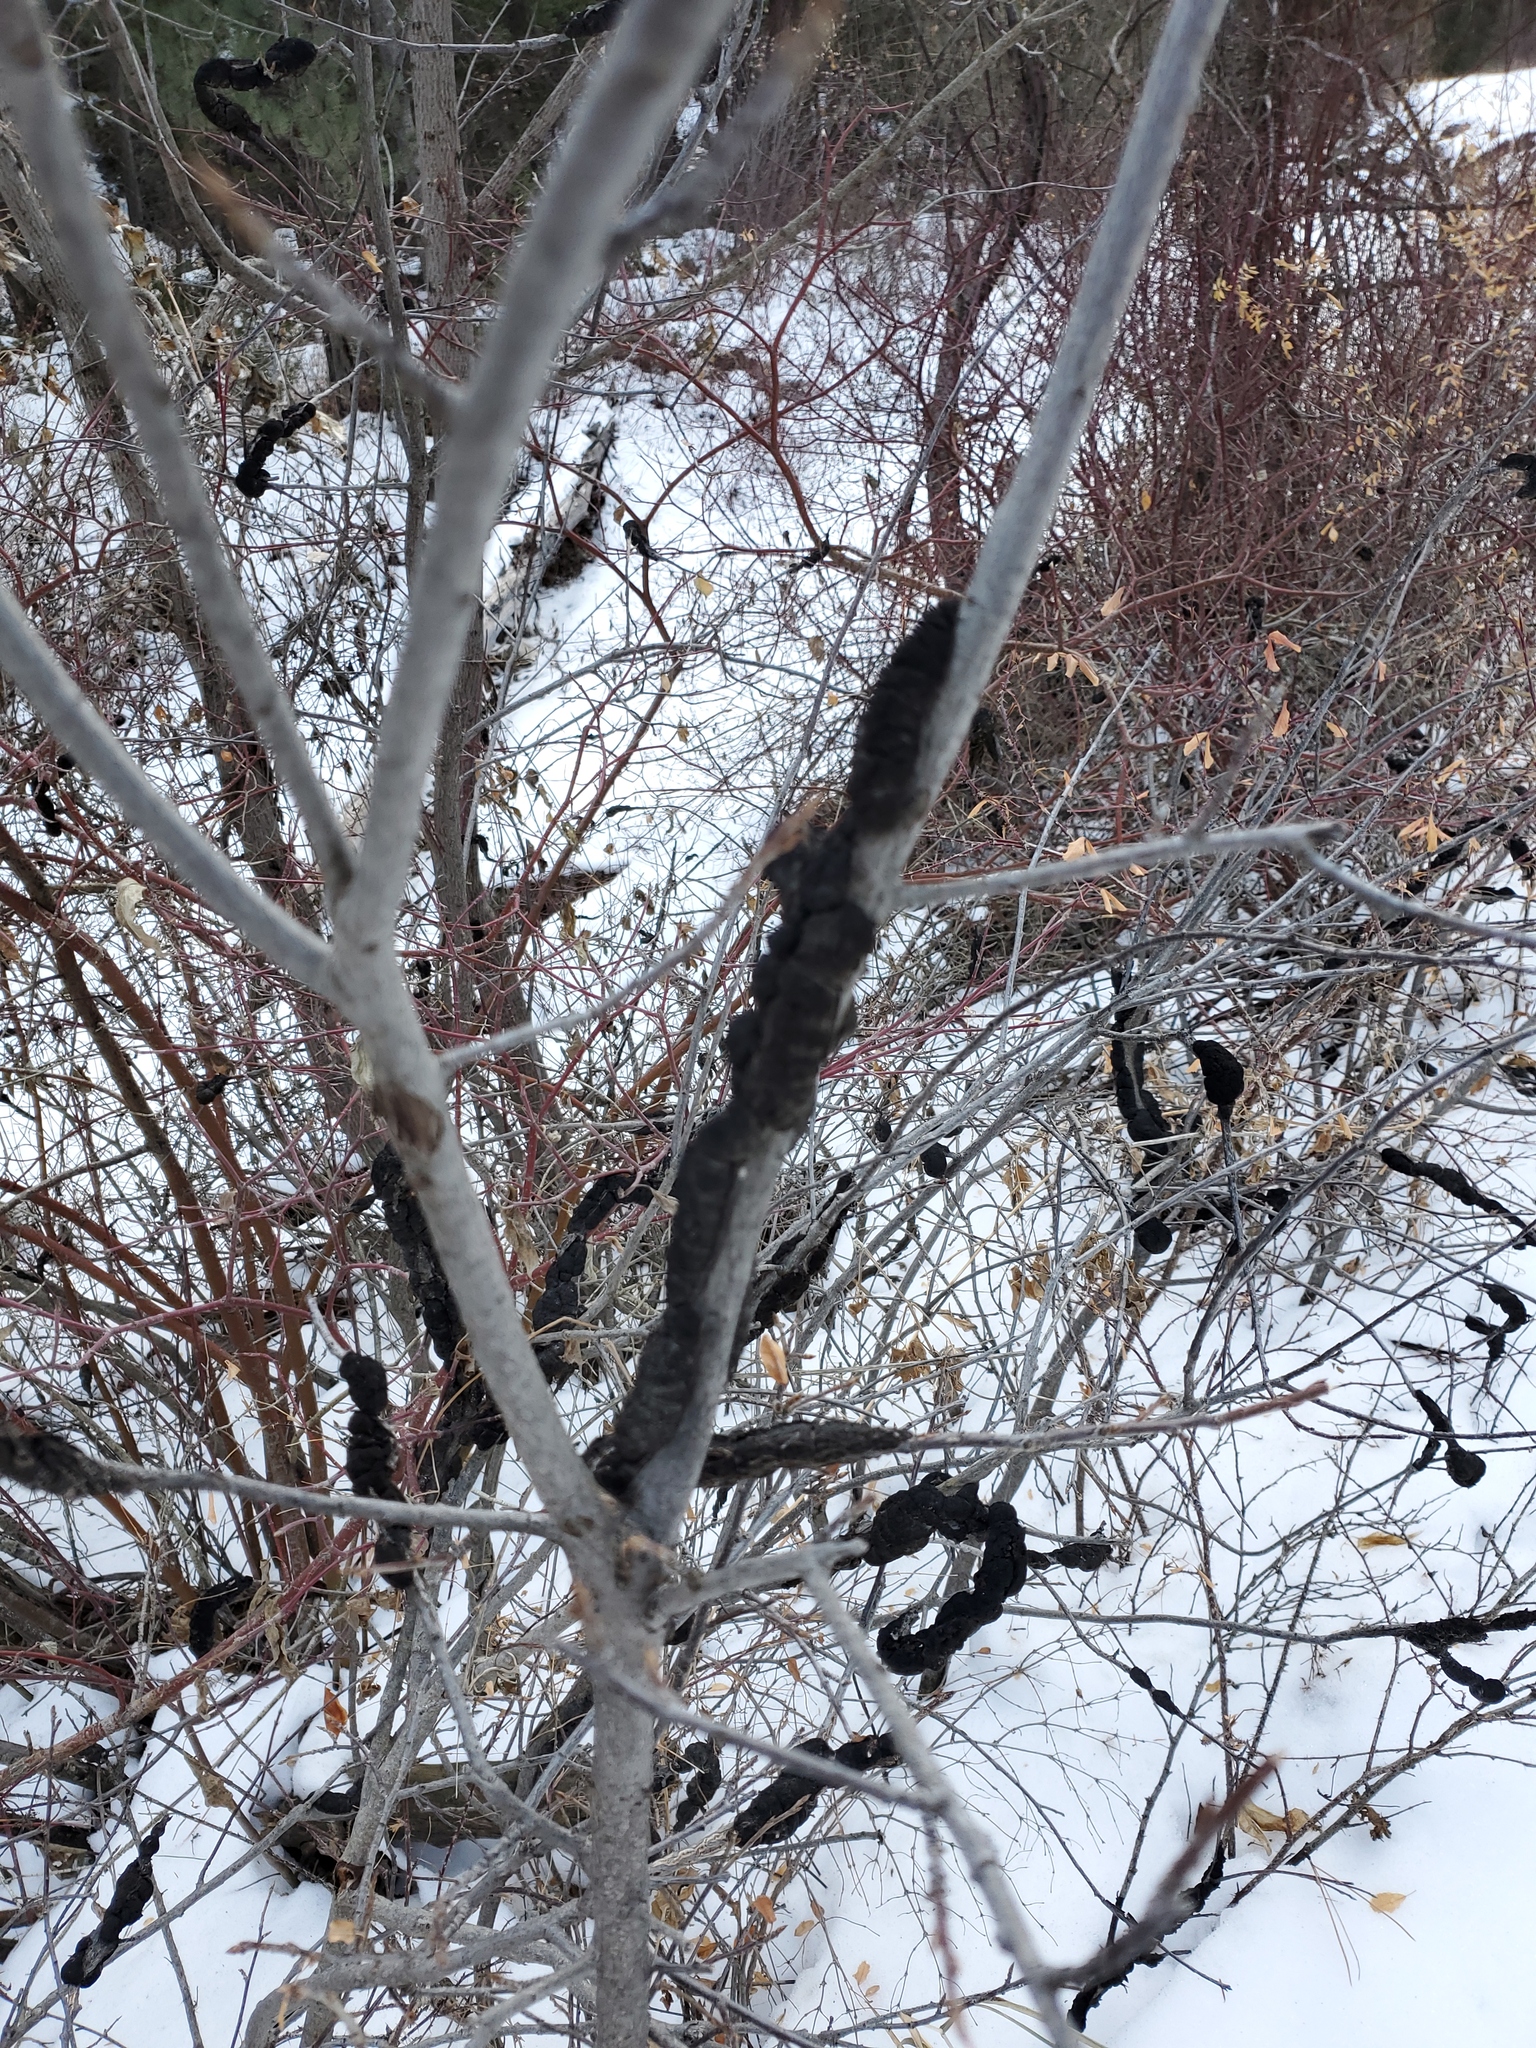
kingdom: Fungi
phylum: Ascomycota
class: Dothideomycetes
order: Venturiales
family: Venturiaceae
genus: Apiosporina
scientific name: Apiosporina morbosa
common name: Black knot
